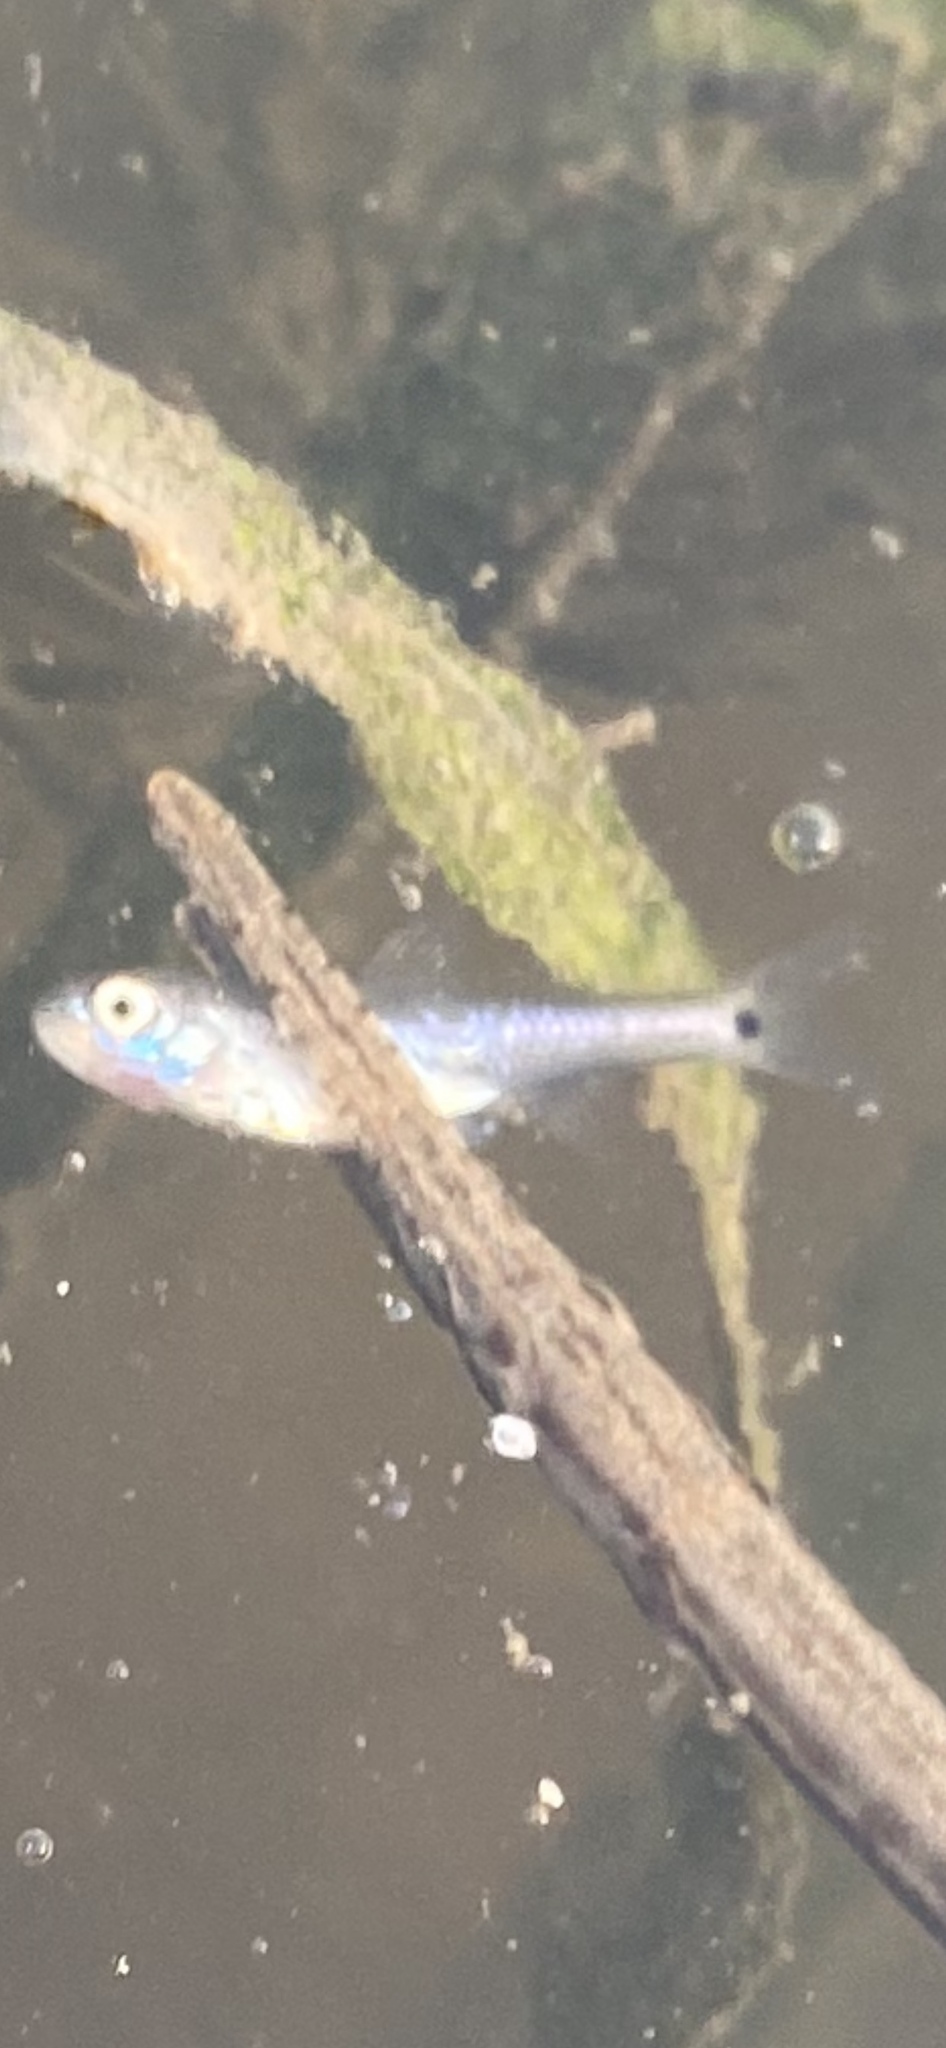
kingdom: Animalia
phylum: Chordata
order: Cypriniformes
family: Cyprinidae
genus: Notropis
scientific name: Notropis
